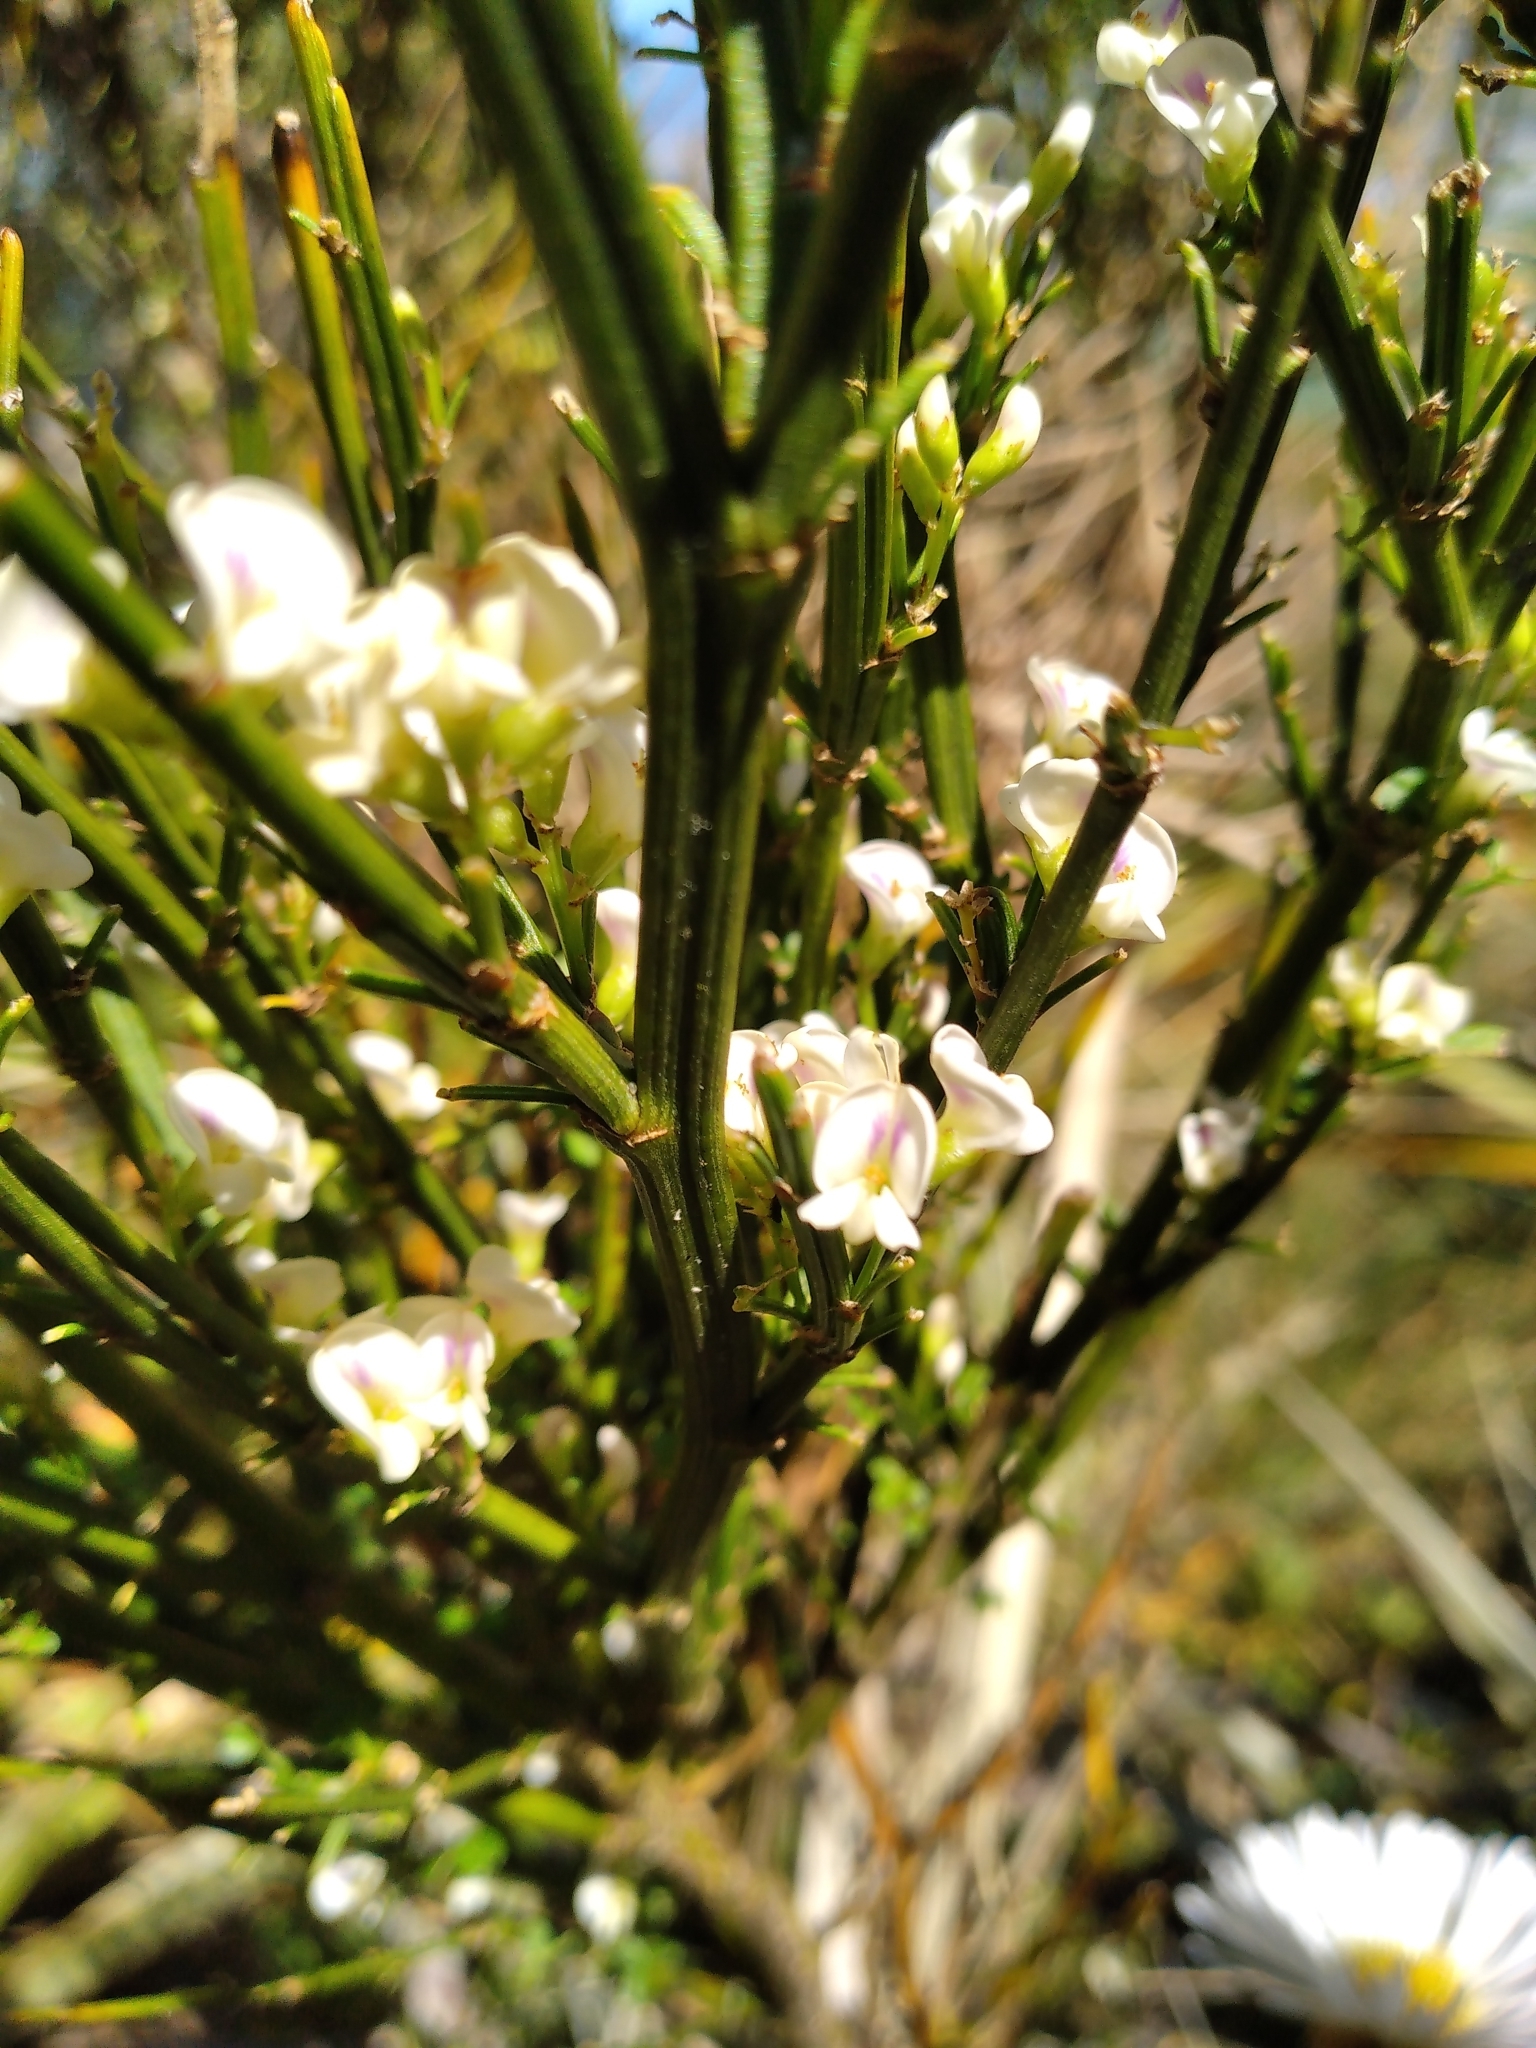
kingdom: Plantae
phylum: Tracheophyta
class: Magnoliopsida
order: Fabales
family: Fabaceae
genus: Carmichaelia
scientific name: Carmichaelia arborea
